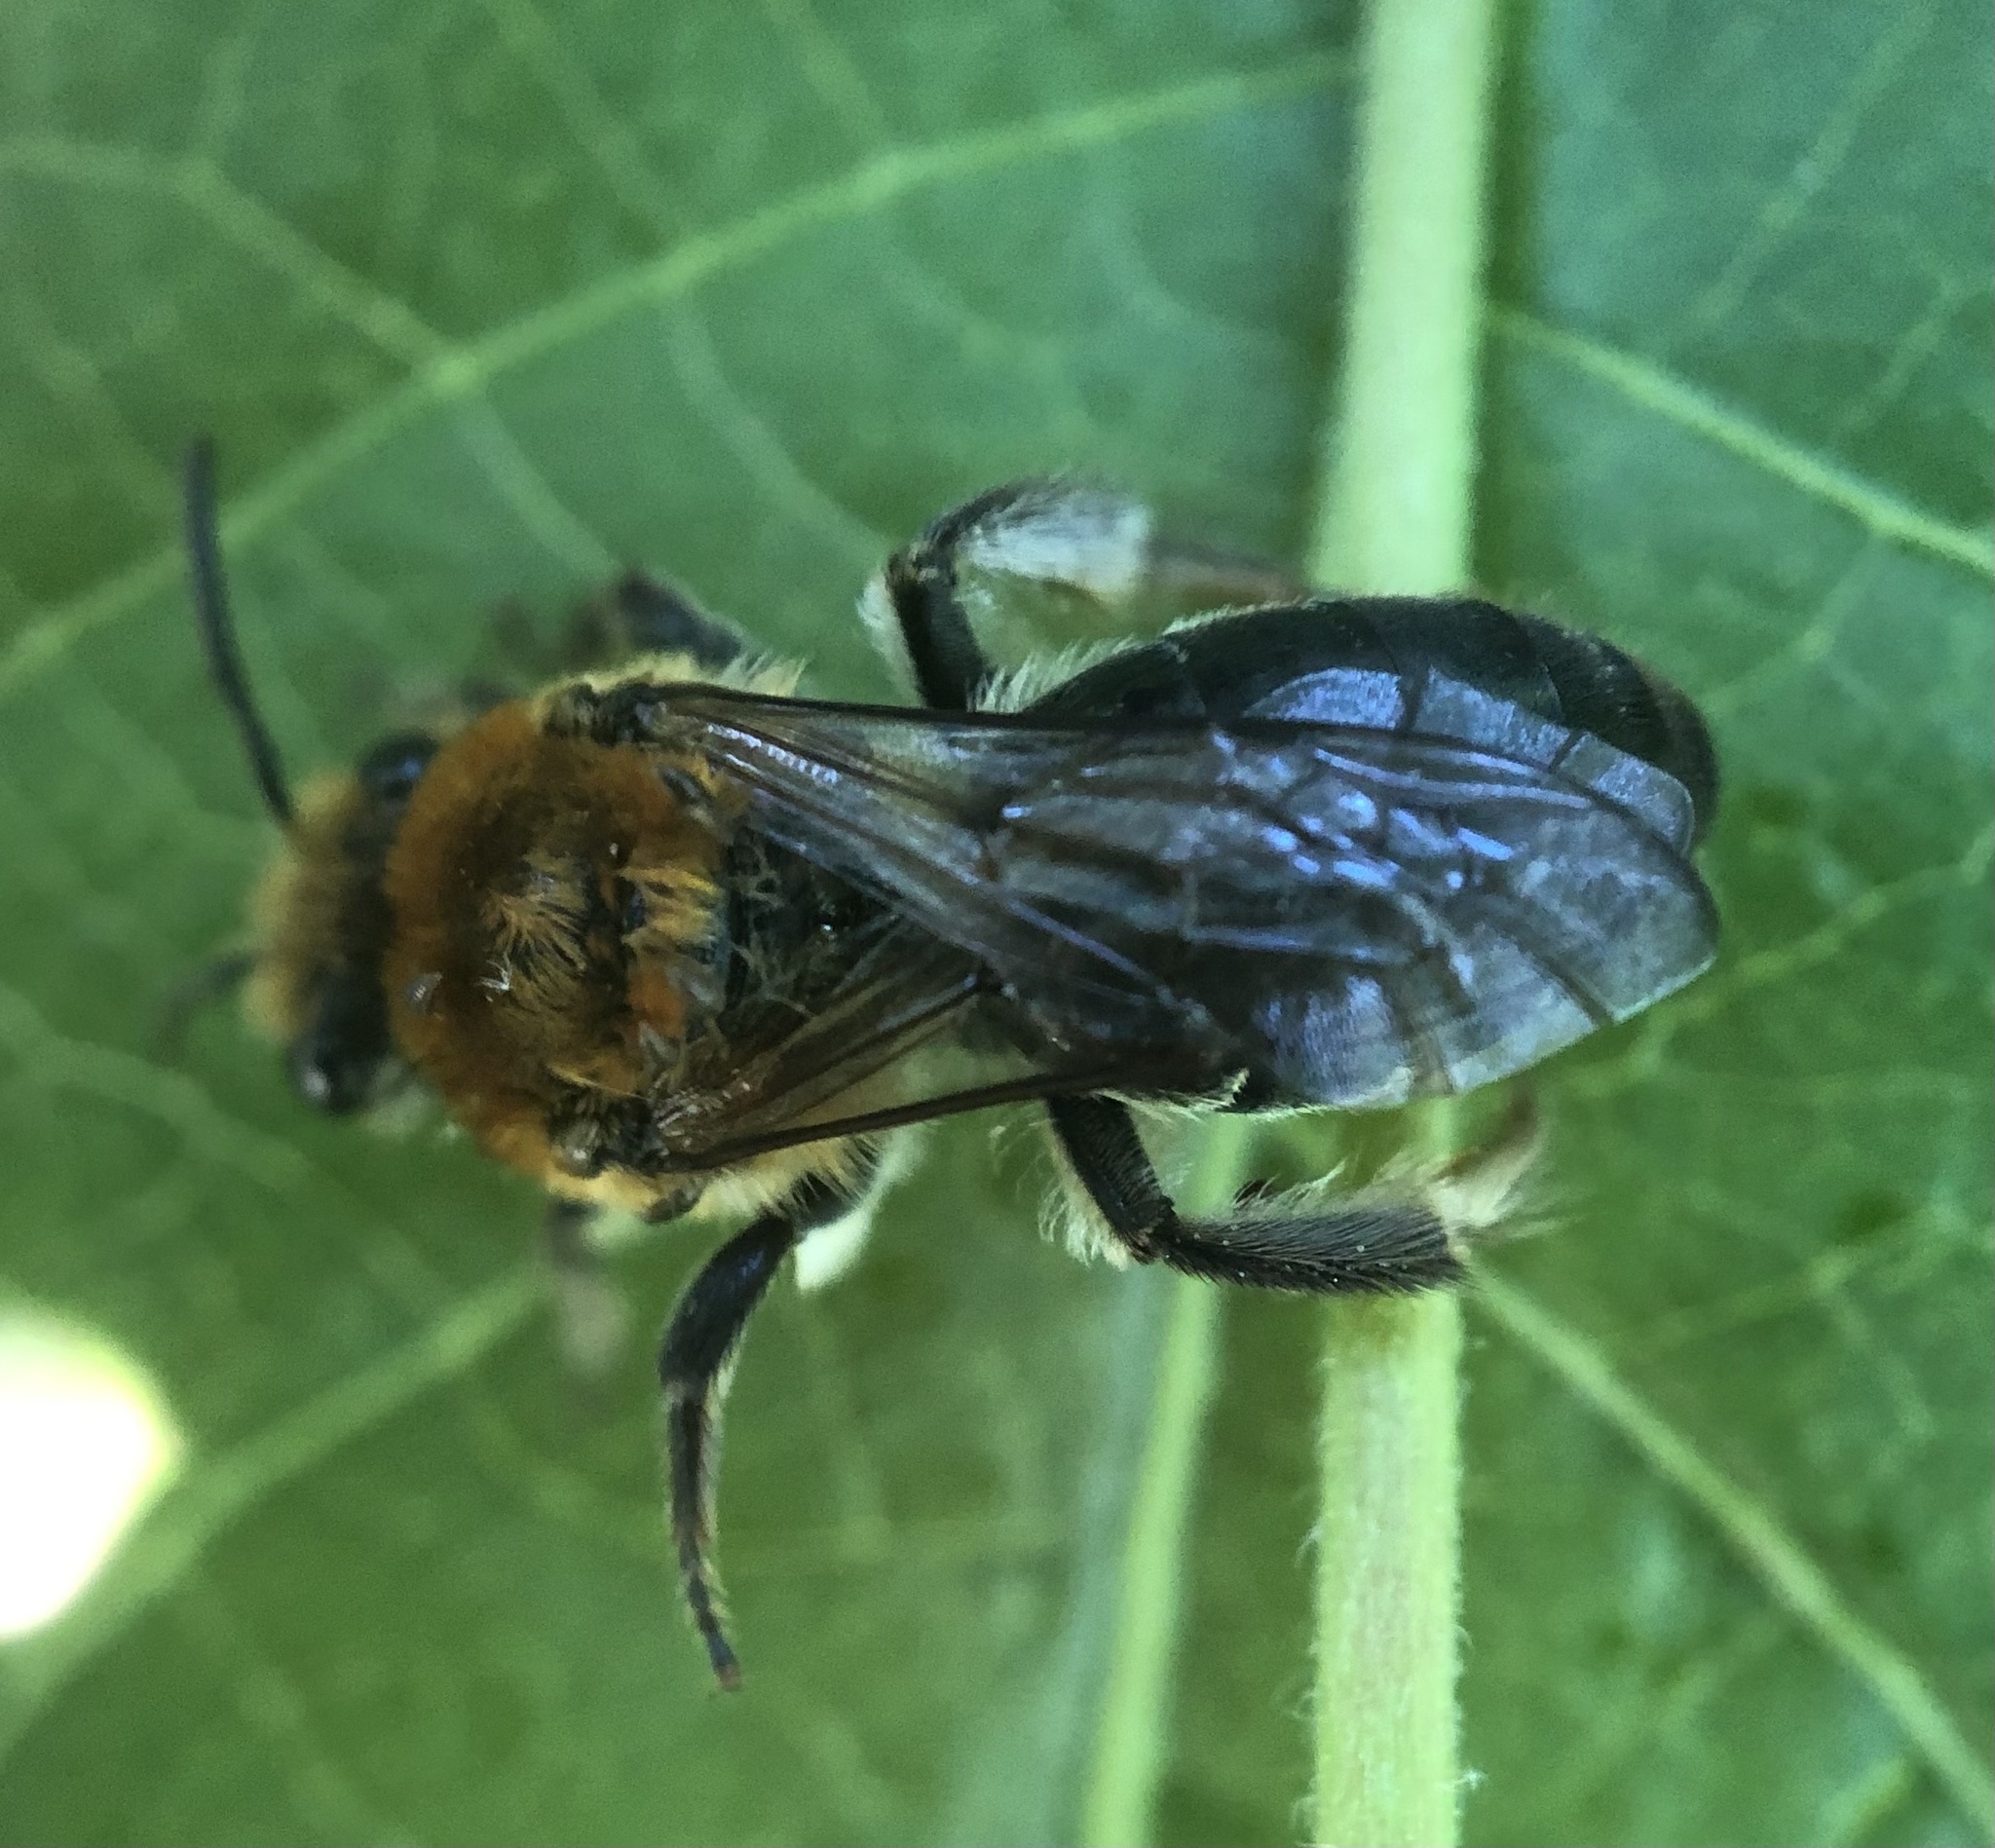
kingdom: Animalia
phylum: Arthropoda
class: Insecta
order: Hymenoptera
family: Colletidae
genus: Colletes
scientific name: Colletes thoracicus
